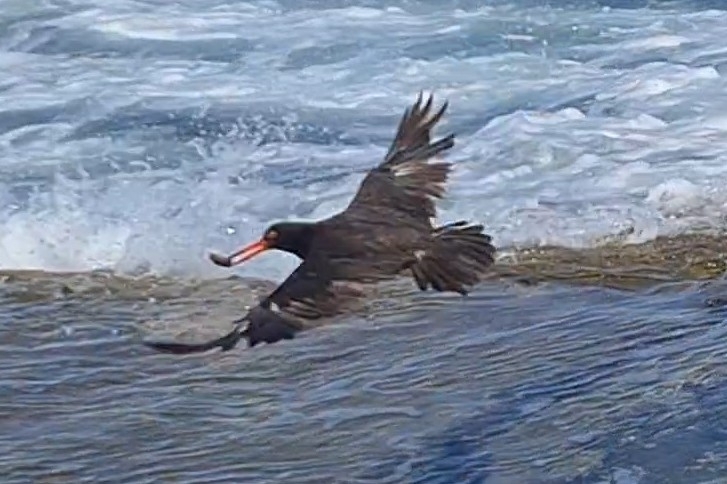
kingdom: Animalia
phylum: Chordata
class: Aves
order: Charadriiformes
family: Haematopodidae
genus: Haematopus
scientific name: Haematopus fuliginosus
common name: Sooty oystercatcher
